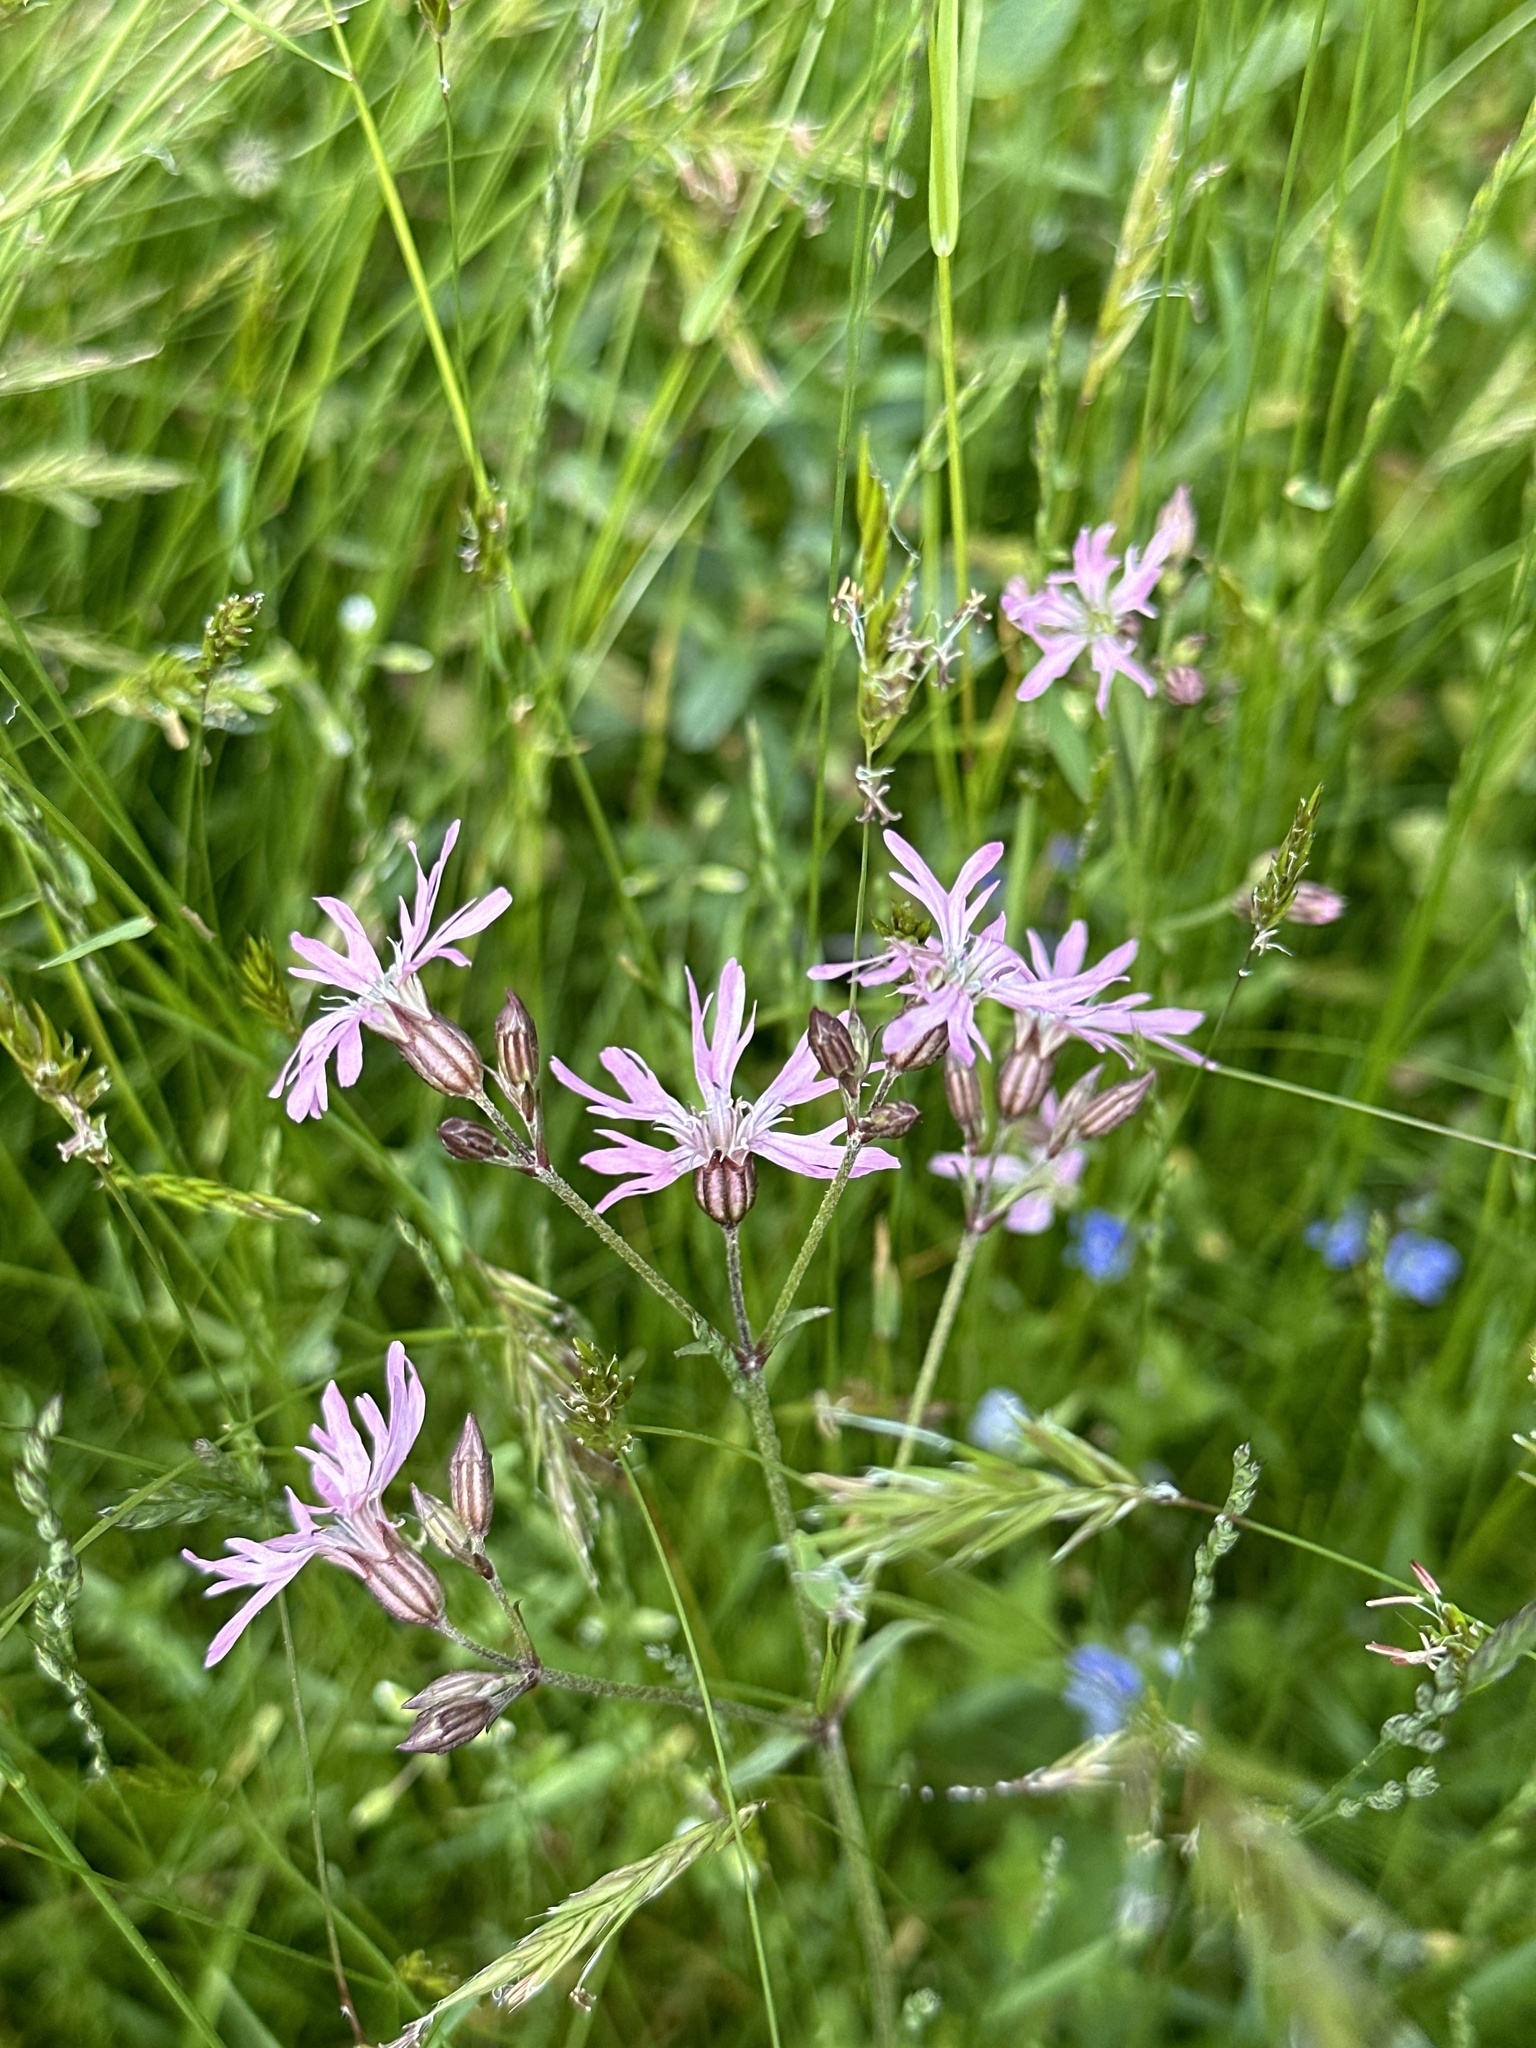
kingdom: Plantae
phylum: Tracheophyta
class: Magnoliopsida
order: Caryophyllales
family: Caryophyllaceae
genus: Silene
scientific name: Silene flos-cuculi
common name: Ragged-robin
